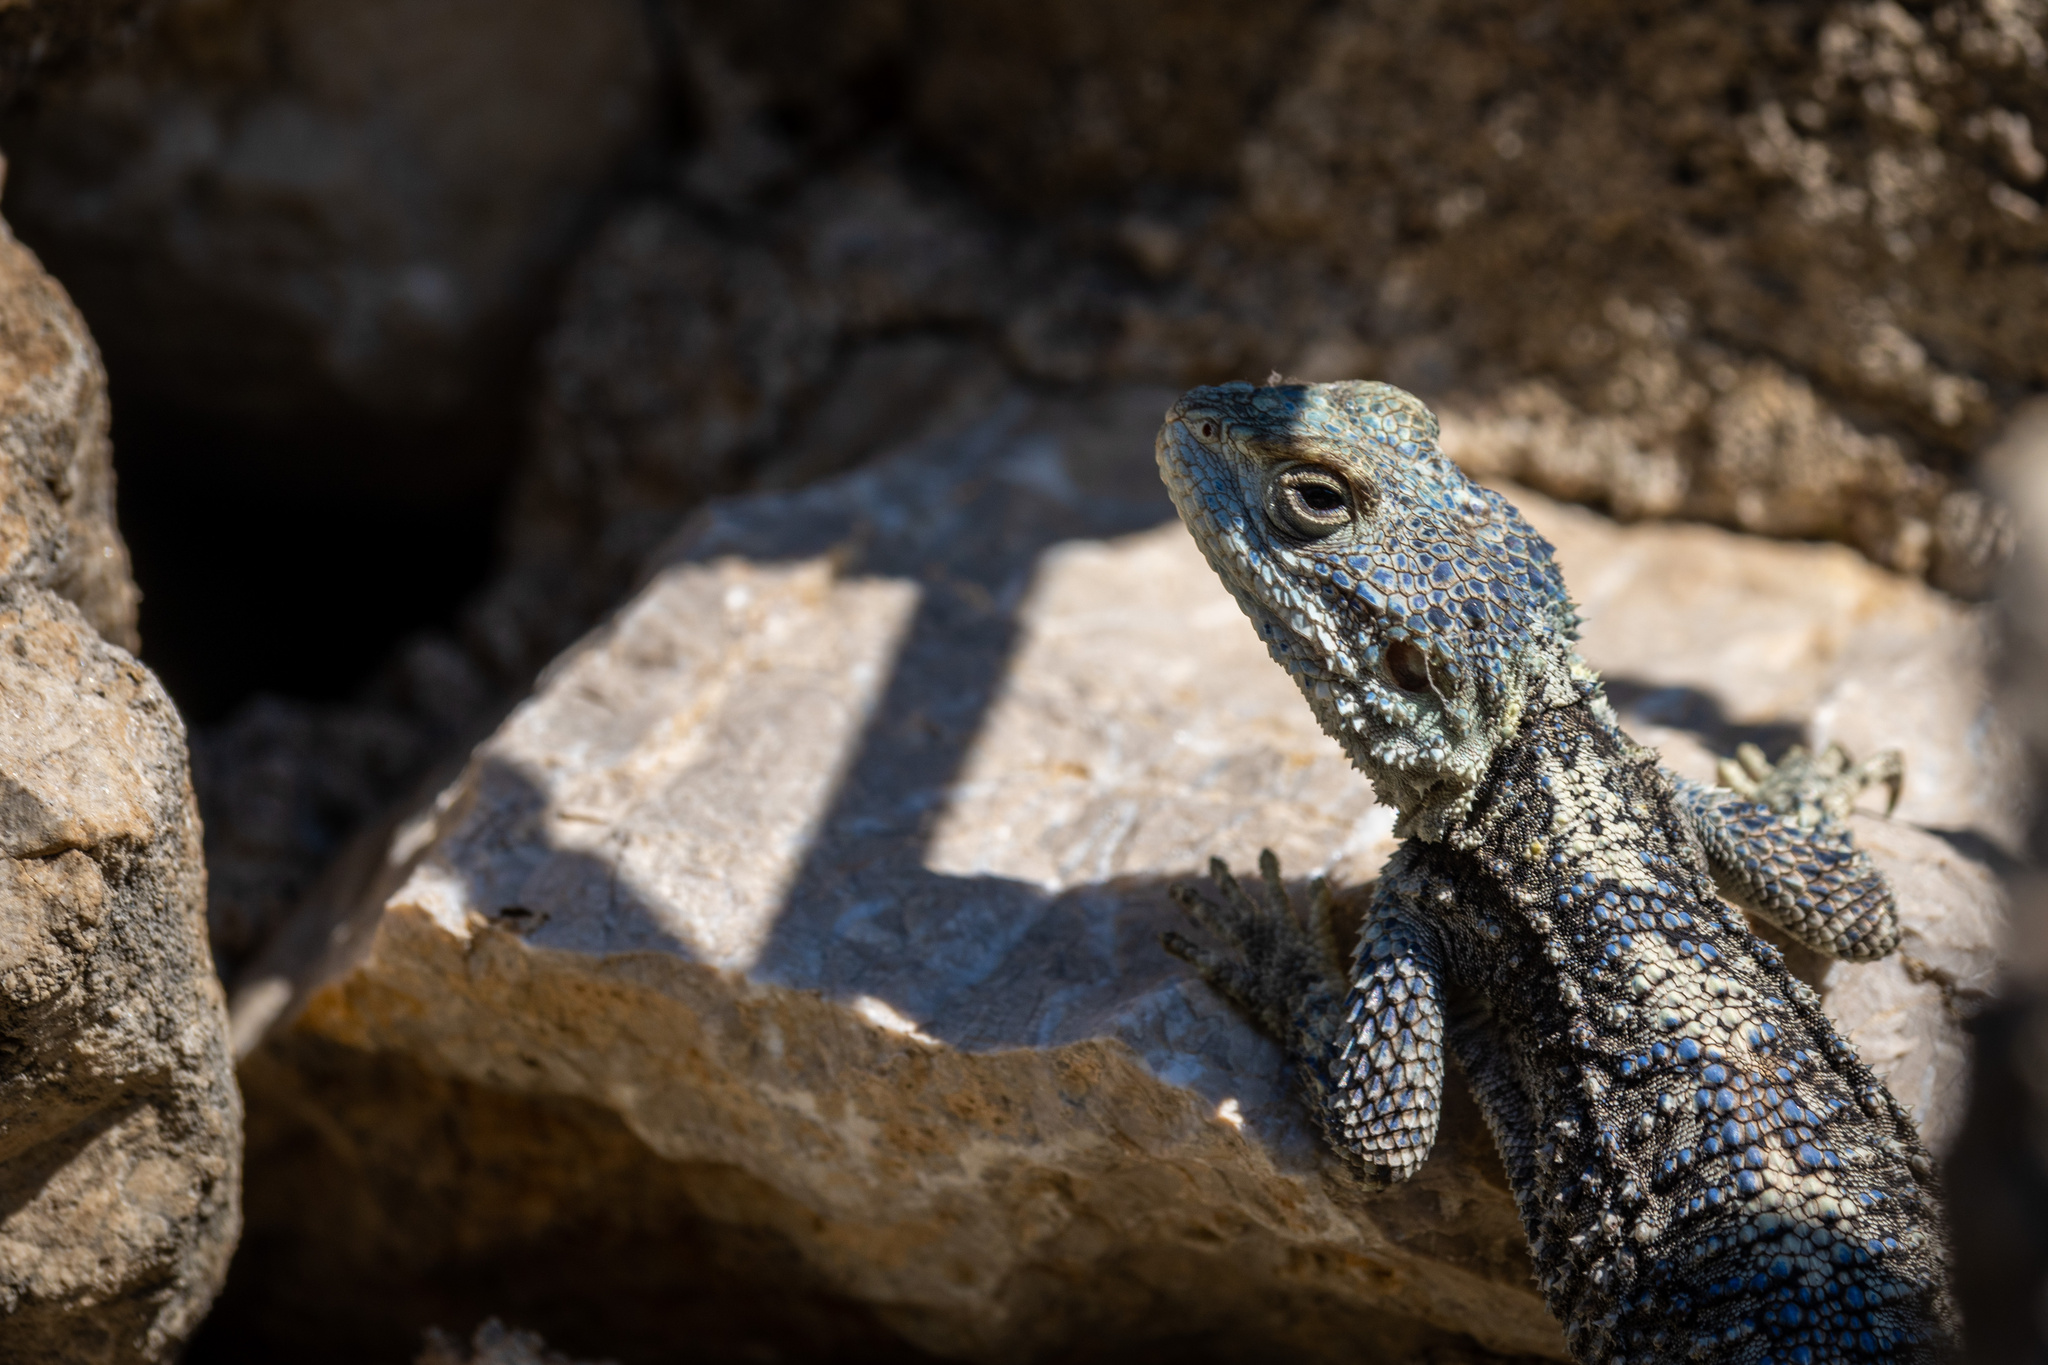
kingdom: Animalia
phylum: Chordata
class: Squamata
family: Agamidae
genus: Stellagama
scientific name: Stellagama stellio
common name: Starred agama
